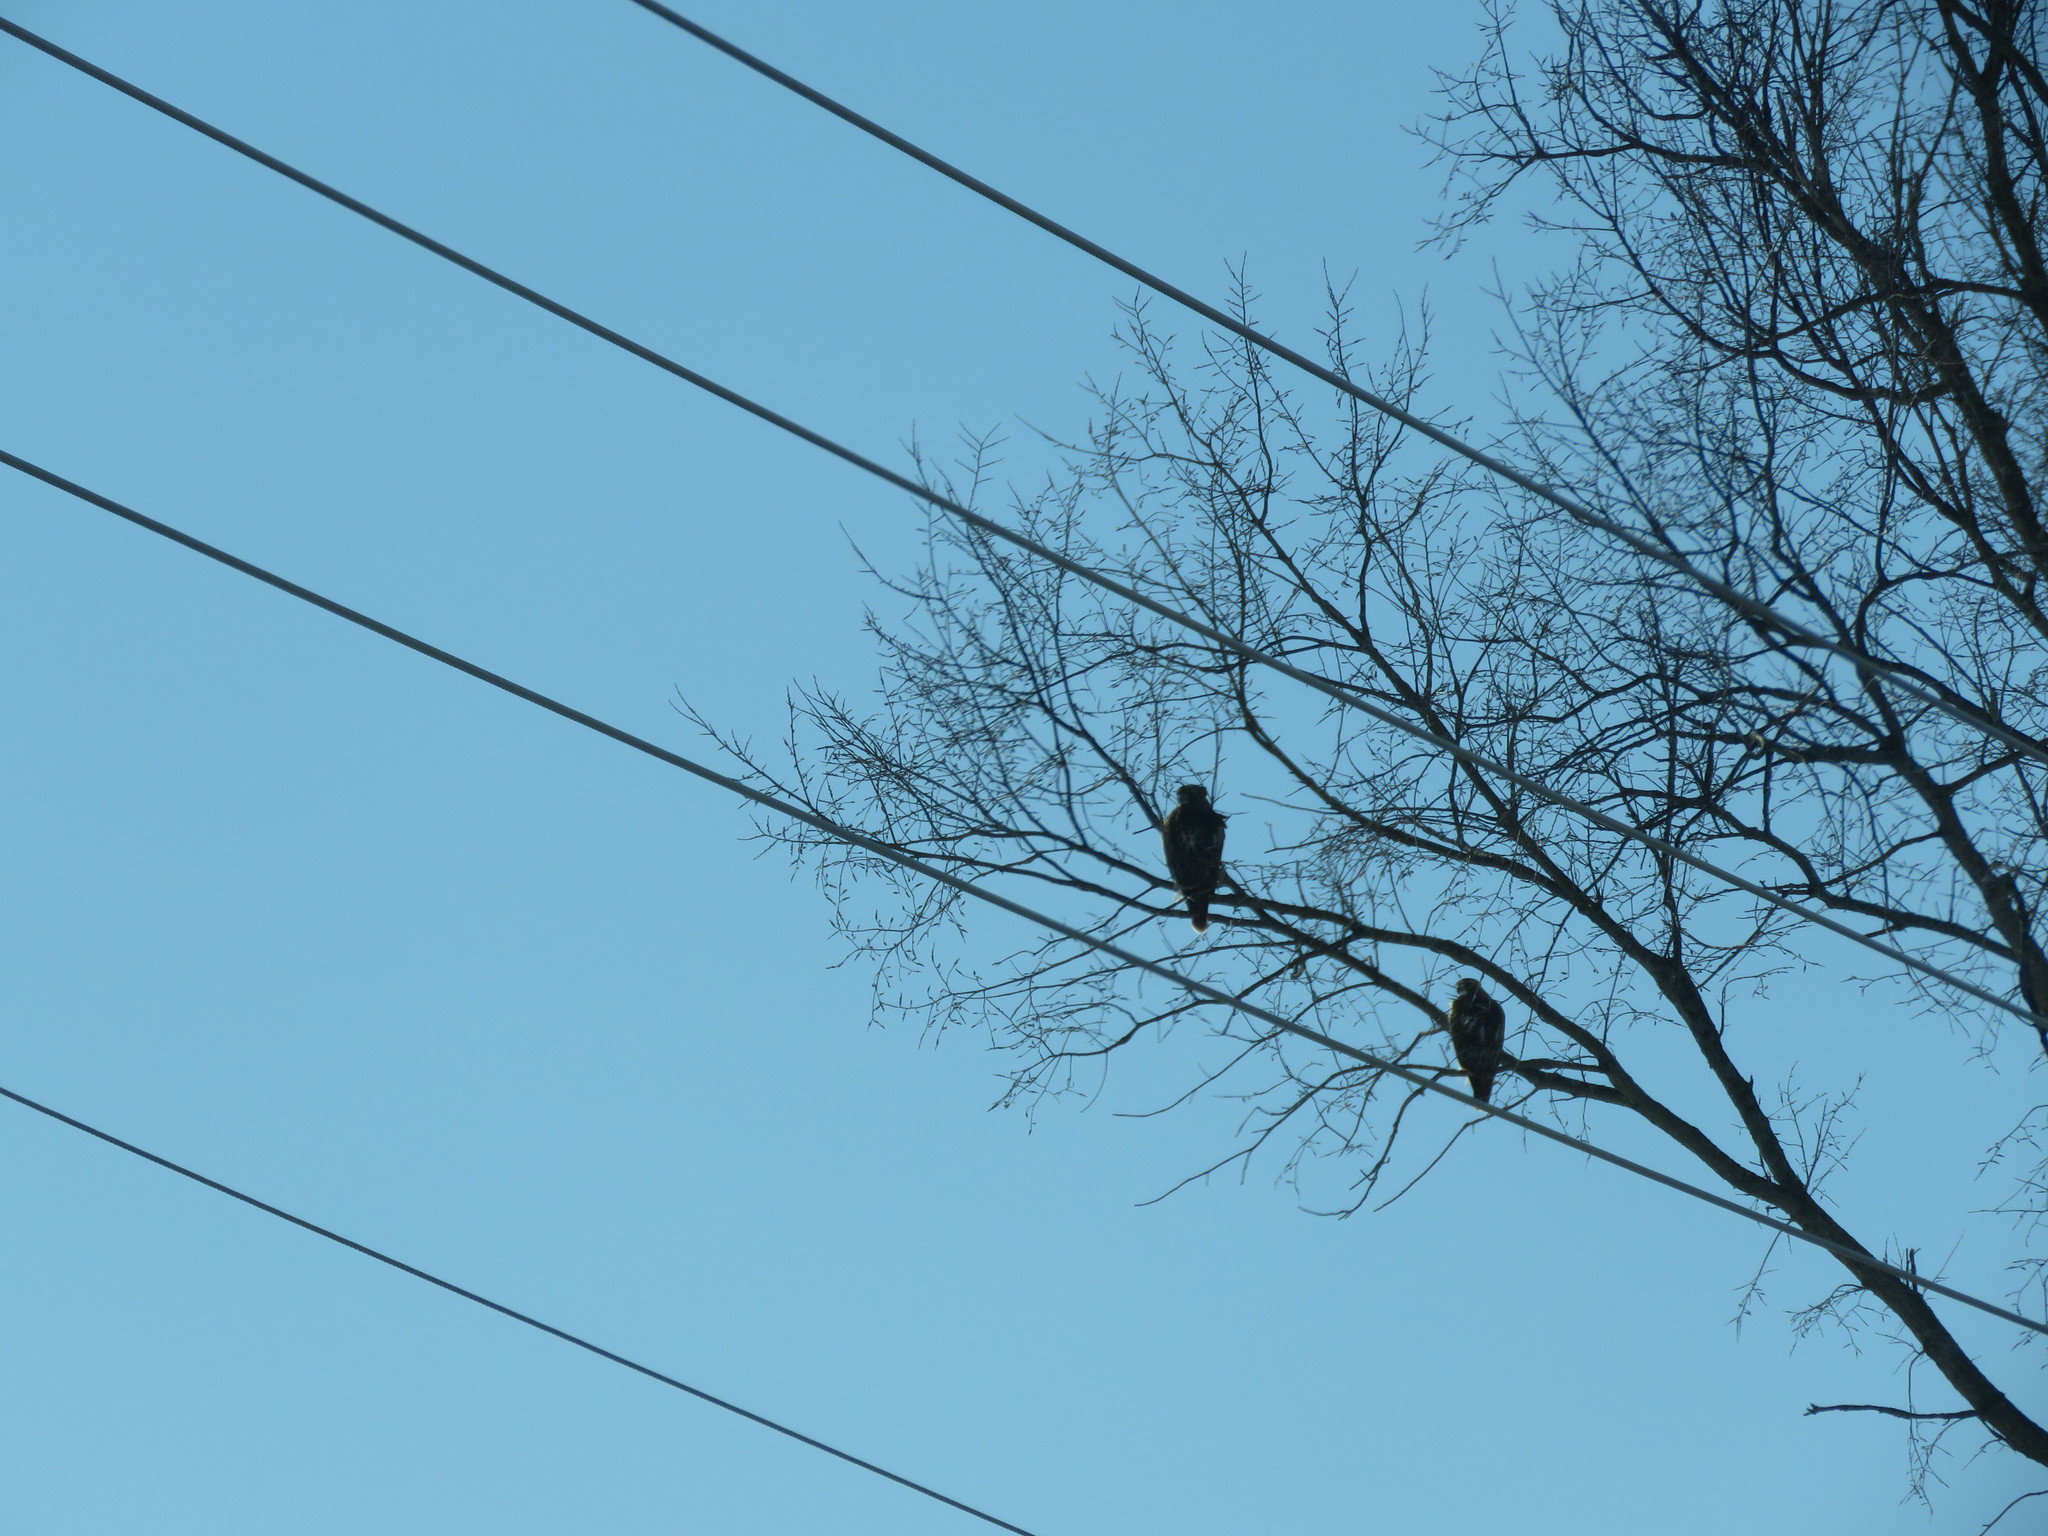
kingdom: Animalia
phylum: Chordata
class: Aves
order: Accipitriformes
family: Accipitridae
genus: Buteo
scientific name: Buteo jamaicensis
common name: Red-tailed hawk
